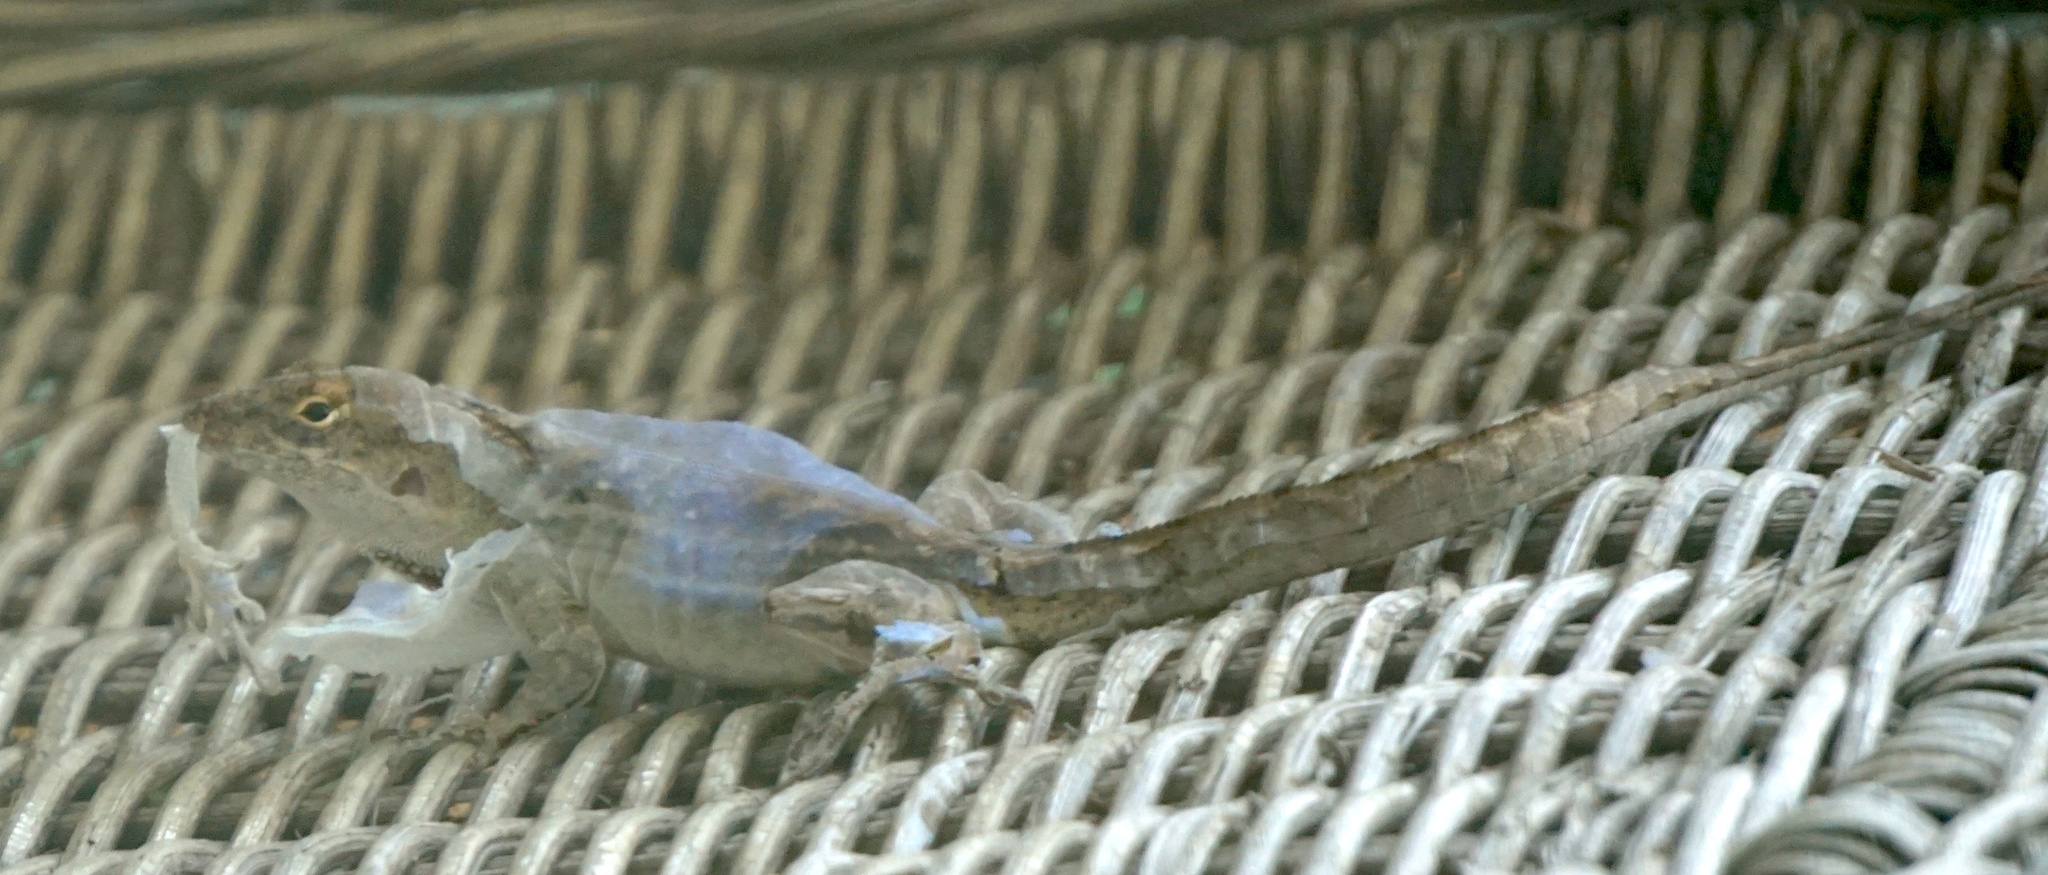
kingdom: Animalia
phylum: Chordata
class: Squamata
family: Dactyloidae
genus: Anolis
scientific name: Anolis sagrei
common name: Brown anole
